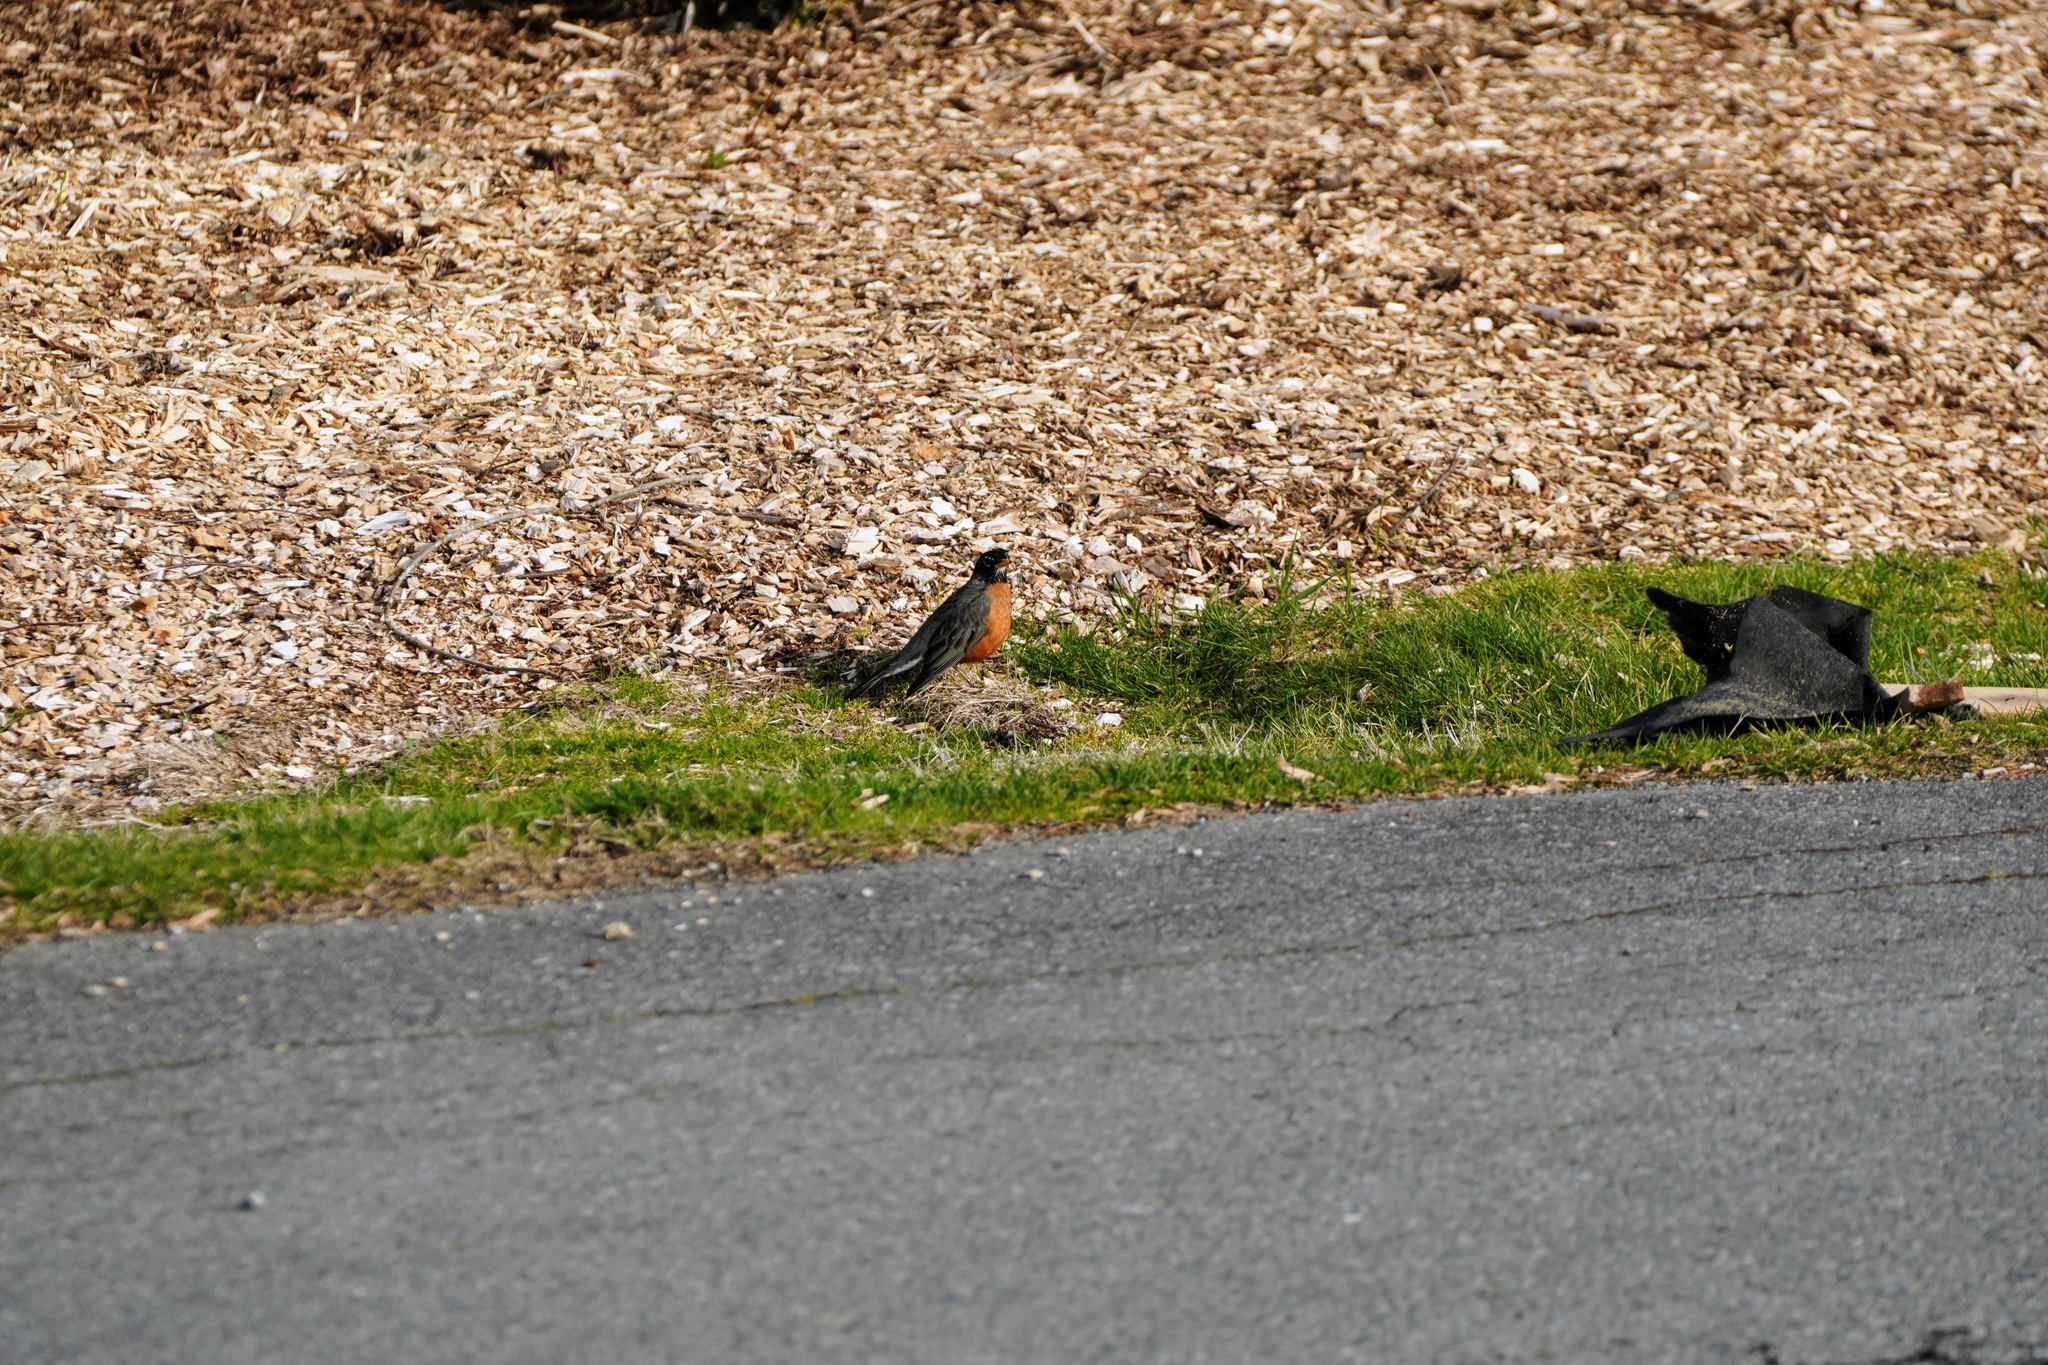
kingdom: Animalia
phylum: Chordata
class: Aves
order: Passeriformes
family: Turdidae
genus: Turdus
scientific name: Turdus migratorius
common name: American robin
